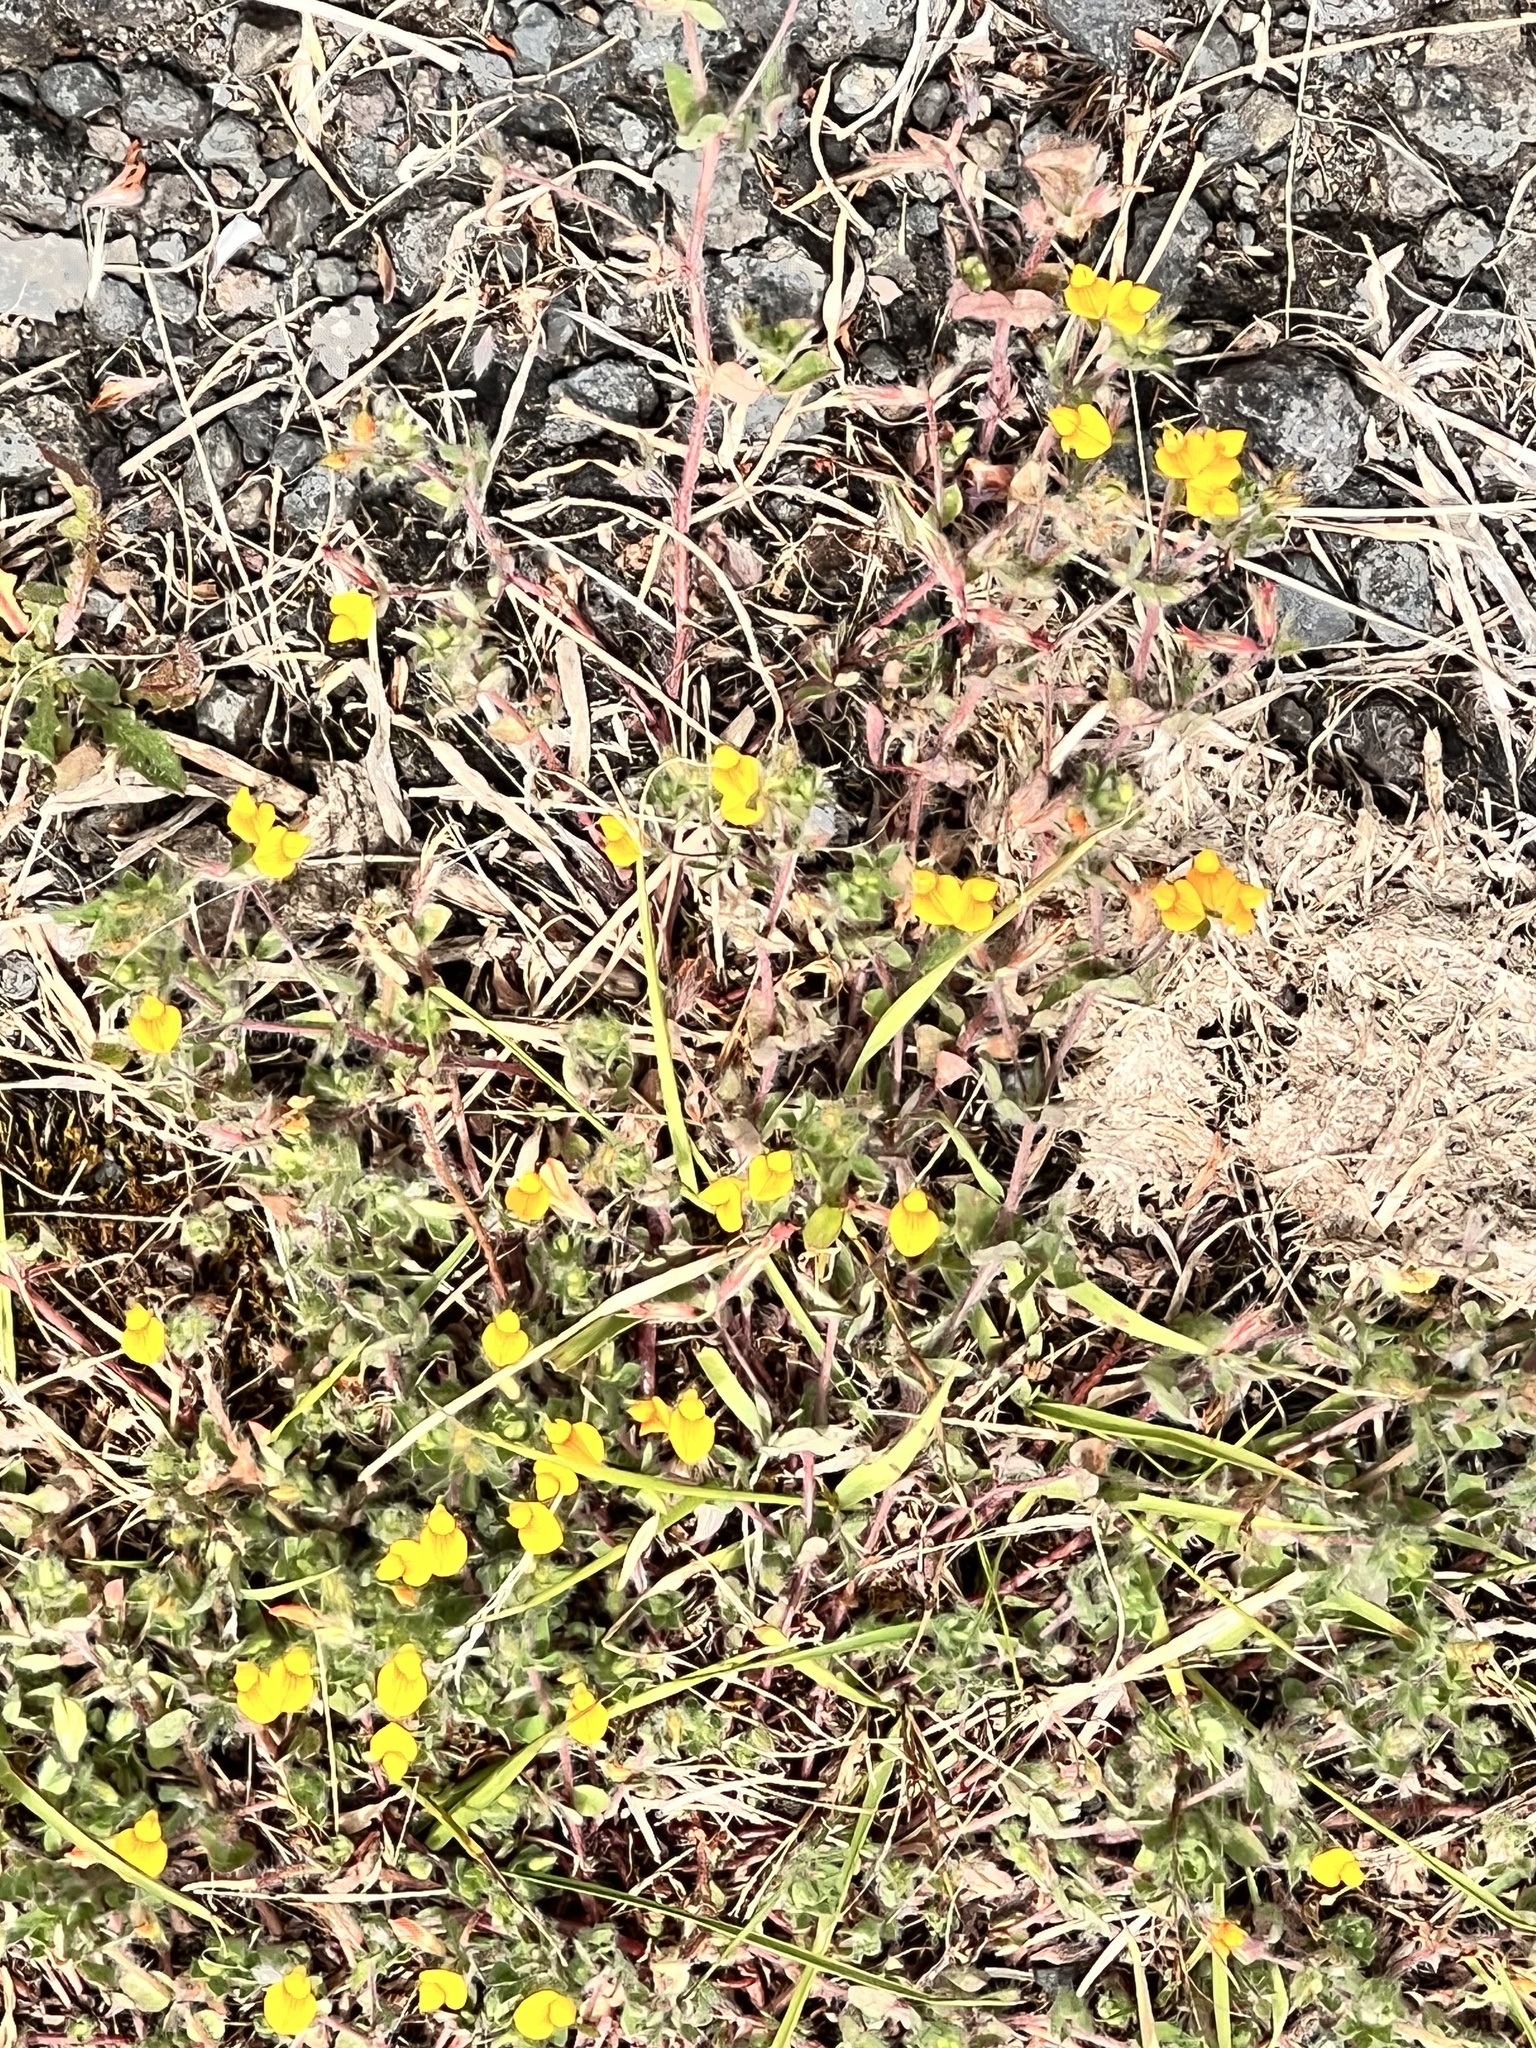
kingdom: Plantae
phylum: Tracheophyta
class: Magnoliopsida
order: Fabales
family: Fabaceae
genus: Lotus
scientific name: Lotus subbiflorus
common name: Hairy bird's-foot trefoil
